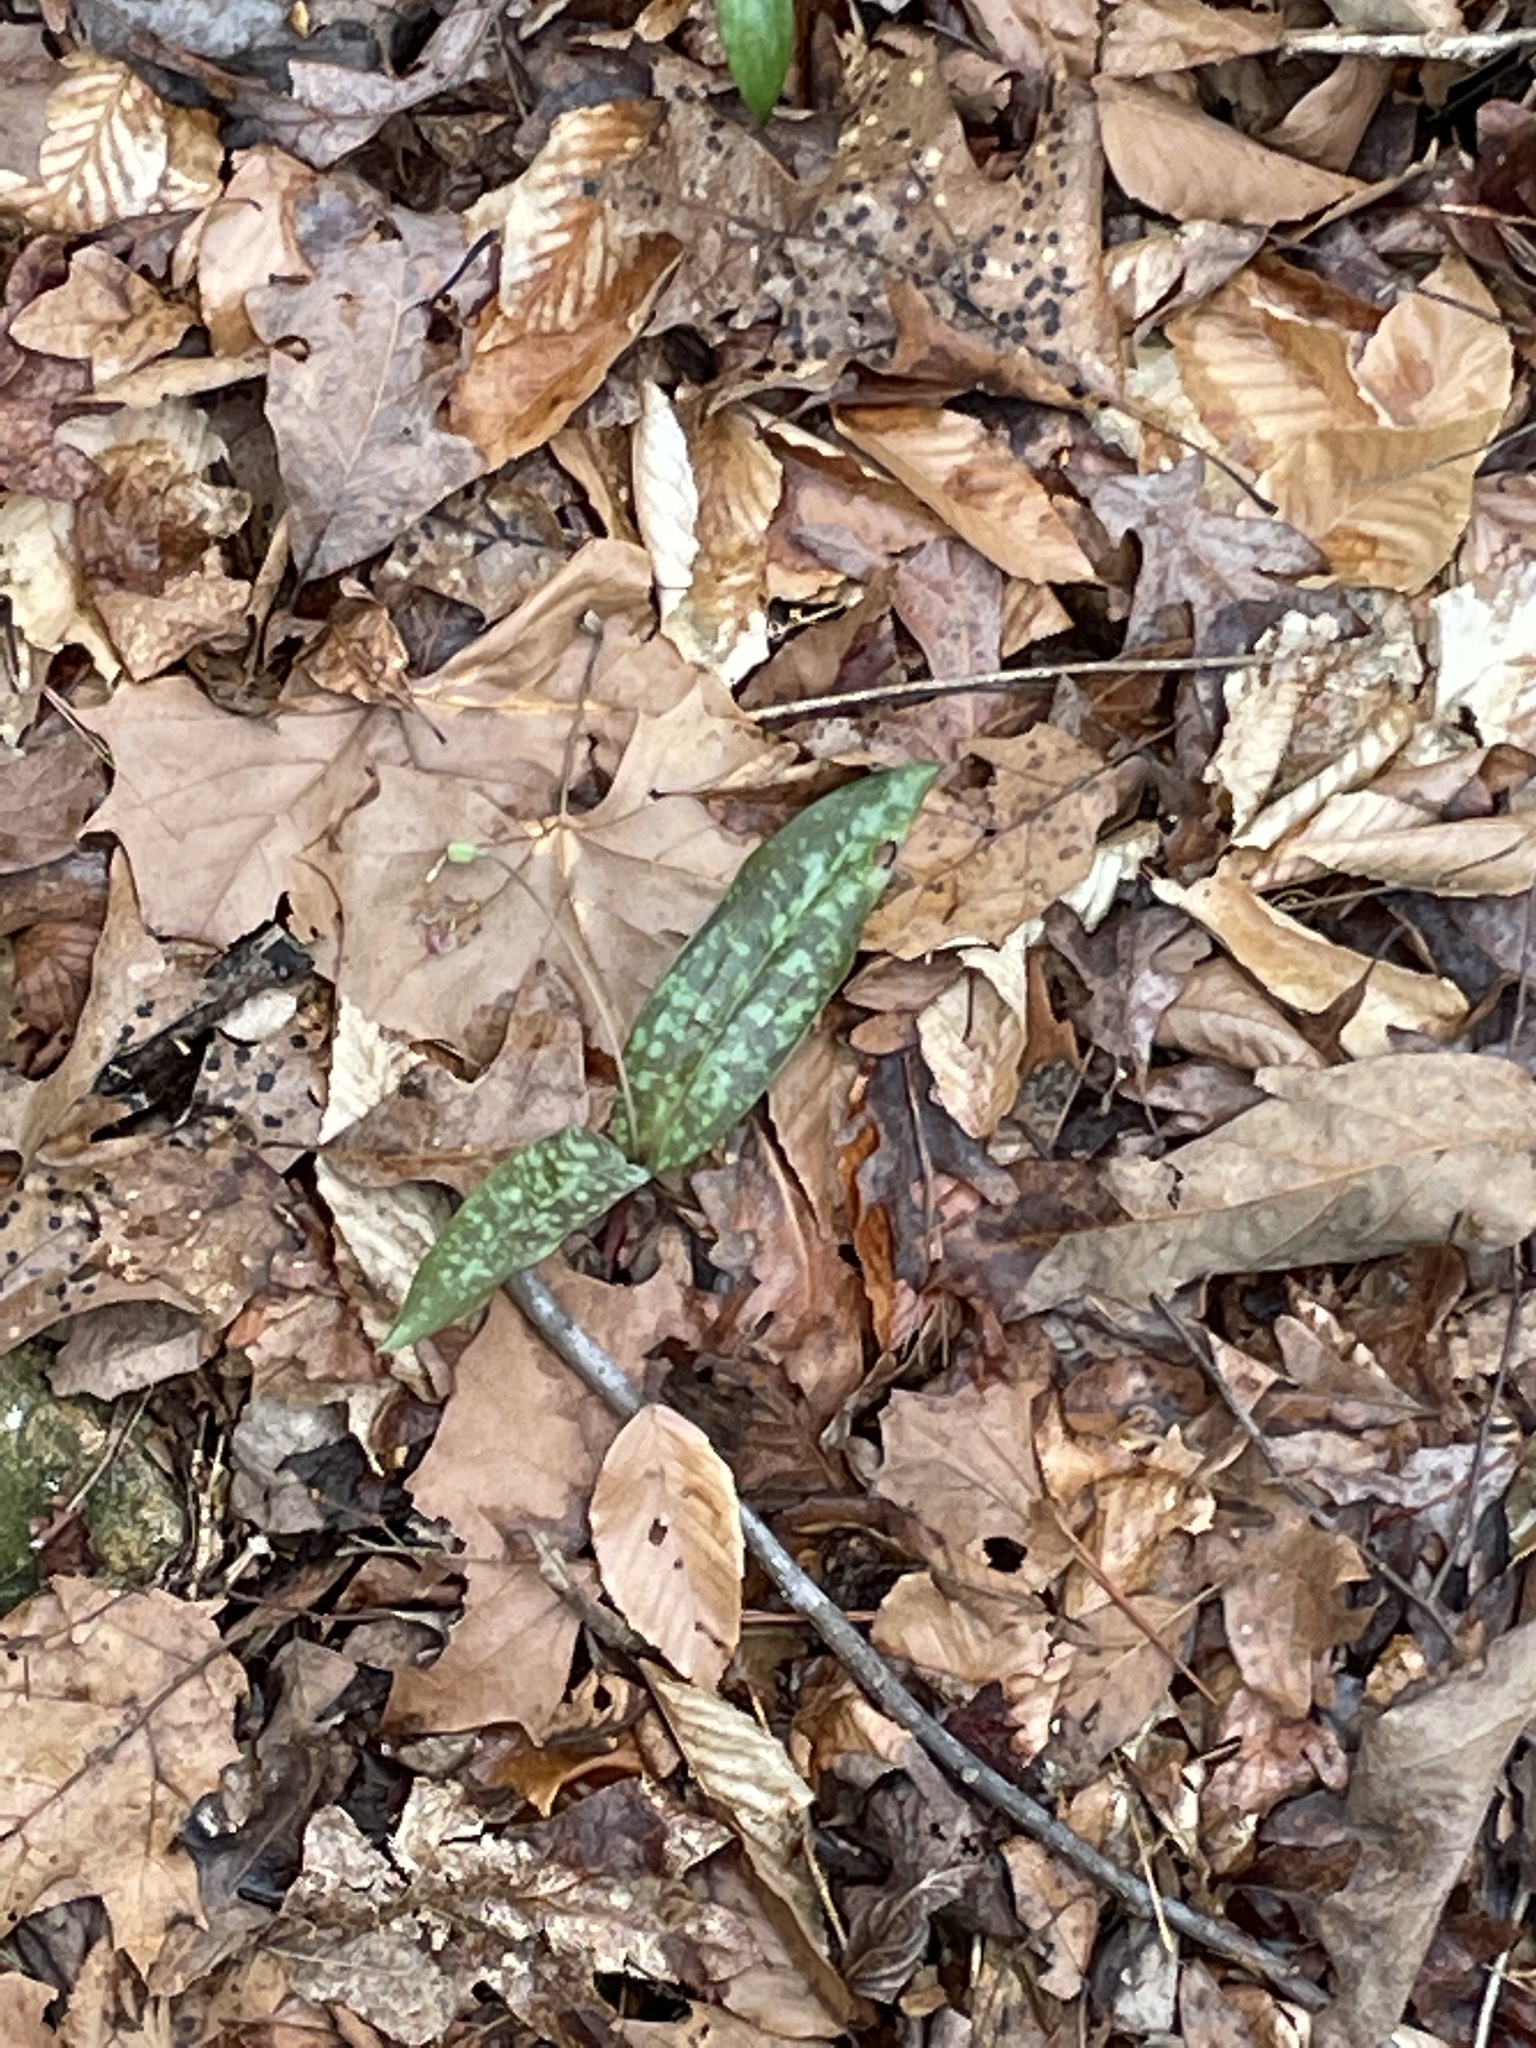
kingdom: Plantae
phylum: Tracheophyta
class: Liliopsida
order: Liliales
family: Liliaceae
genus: Erythronium
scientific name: Erythronium umbilicatum
